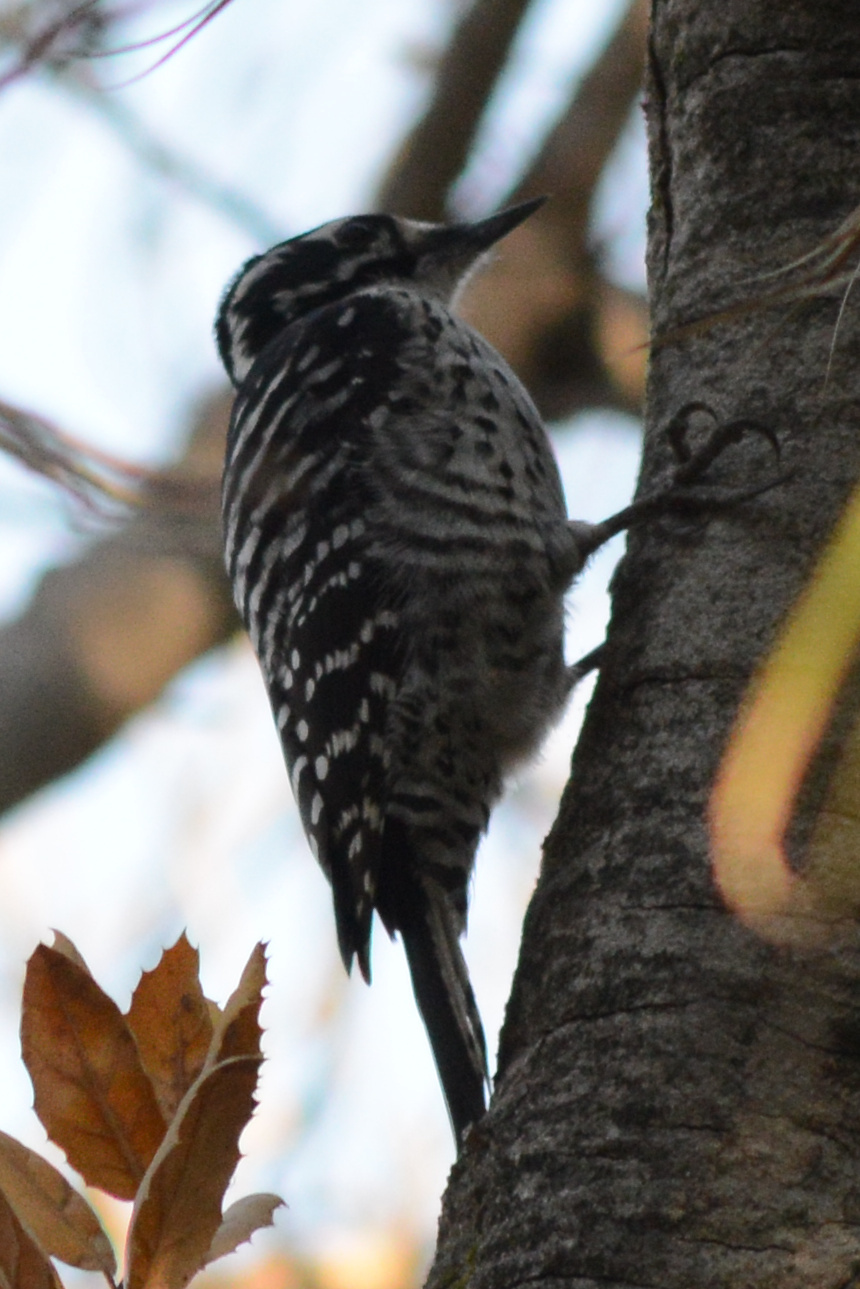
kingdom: Animalia
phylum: Chordata
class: Aves
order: Piciformes
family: Picidae
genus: Dryobates
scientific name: Dryobates nuttallii
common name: Nuttall's woodpecker
